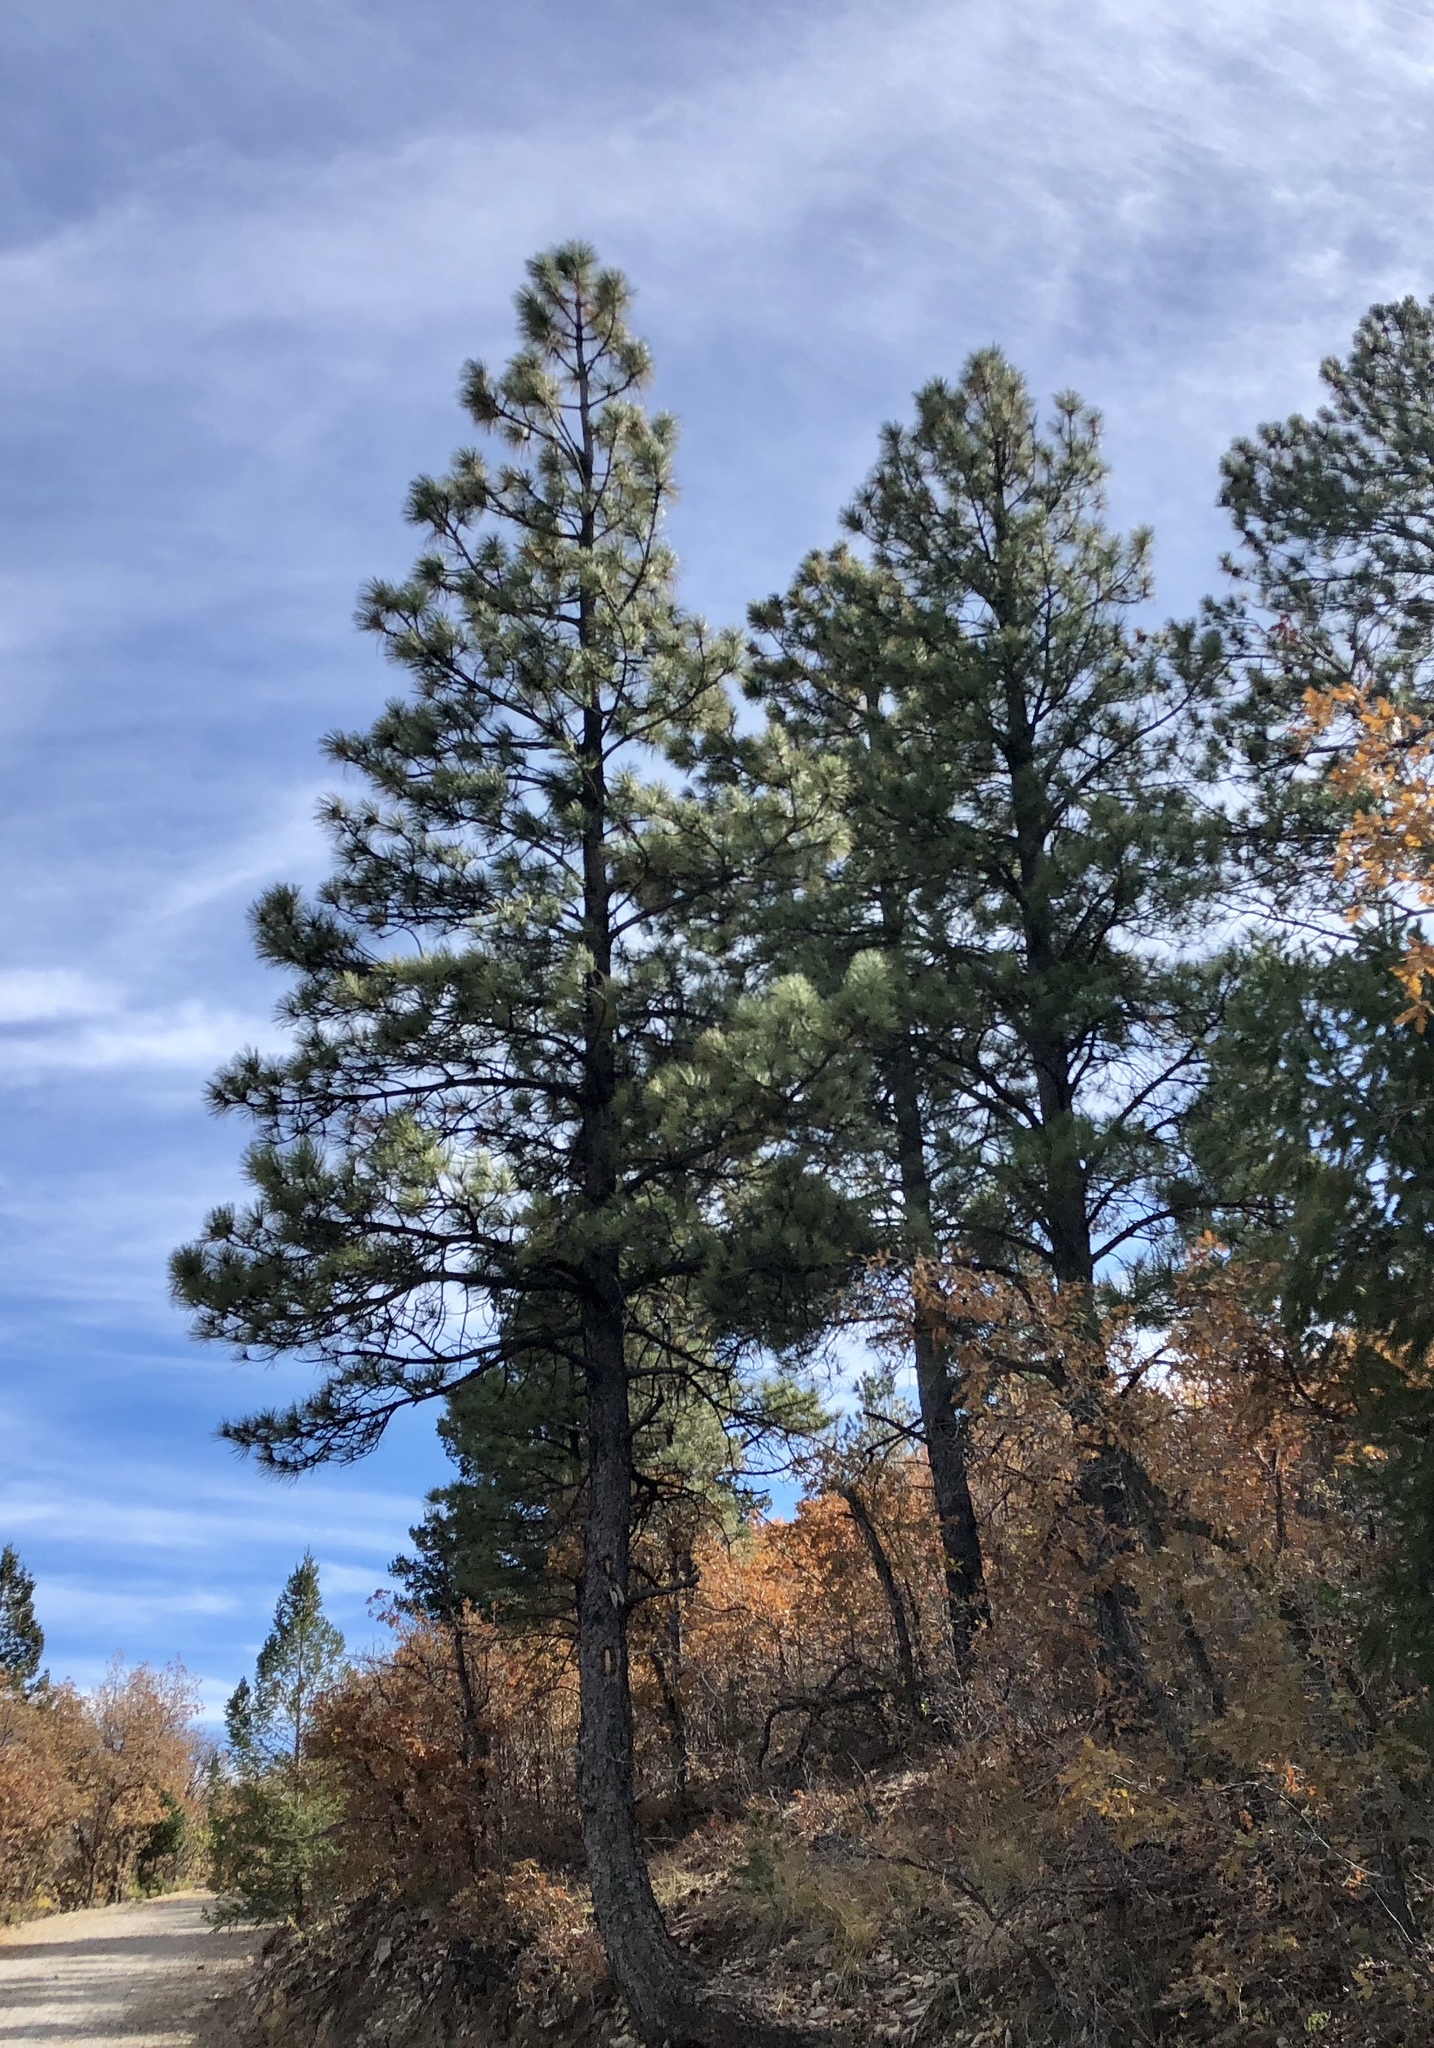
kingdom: Plantae
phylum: Tracheophyta
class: Pinopsida
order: Pinales
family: Pinaceae
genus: Pinus
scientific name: Pinus ponderosa
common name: Western yellow-pine
